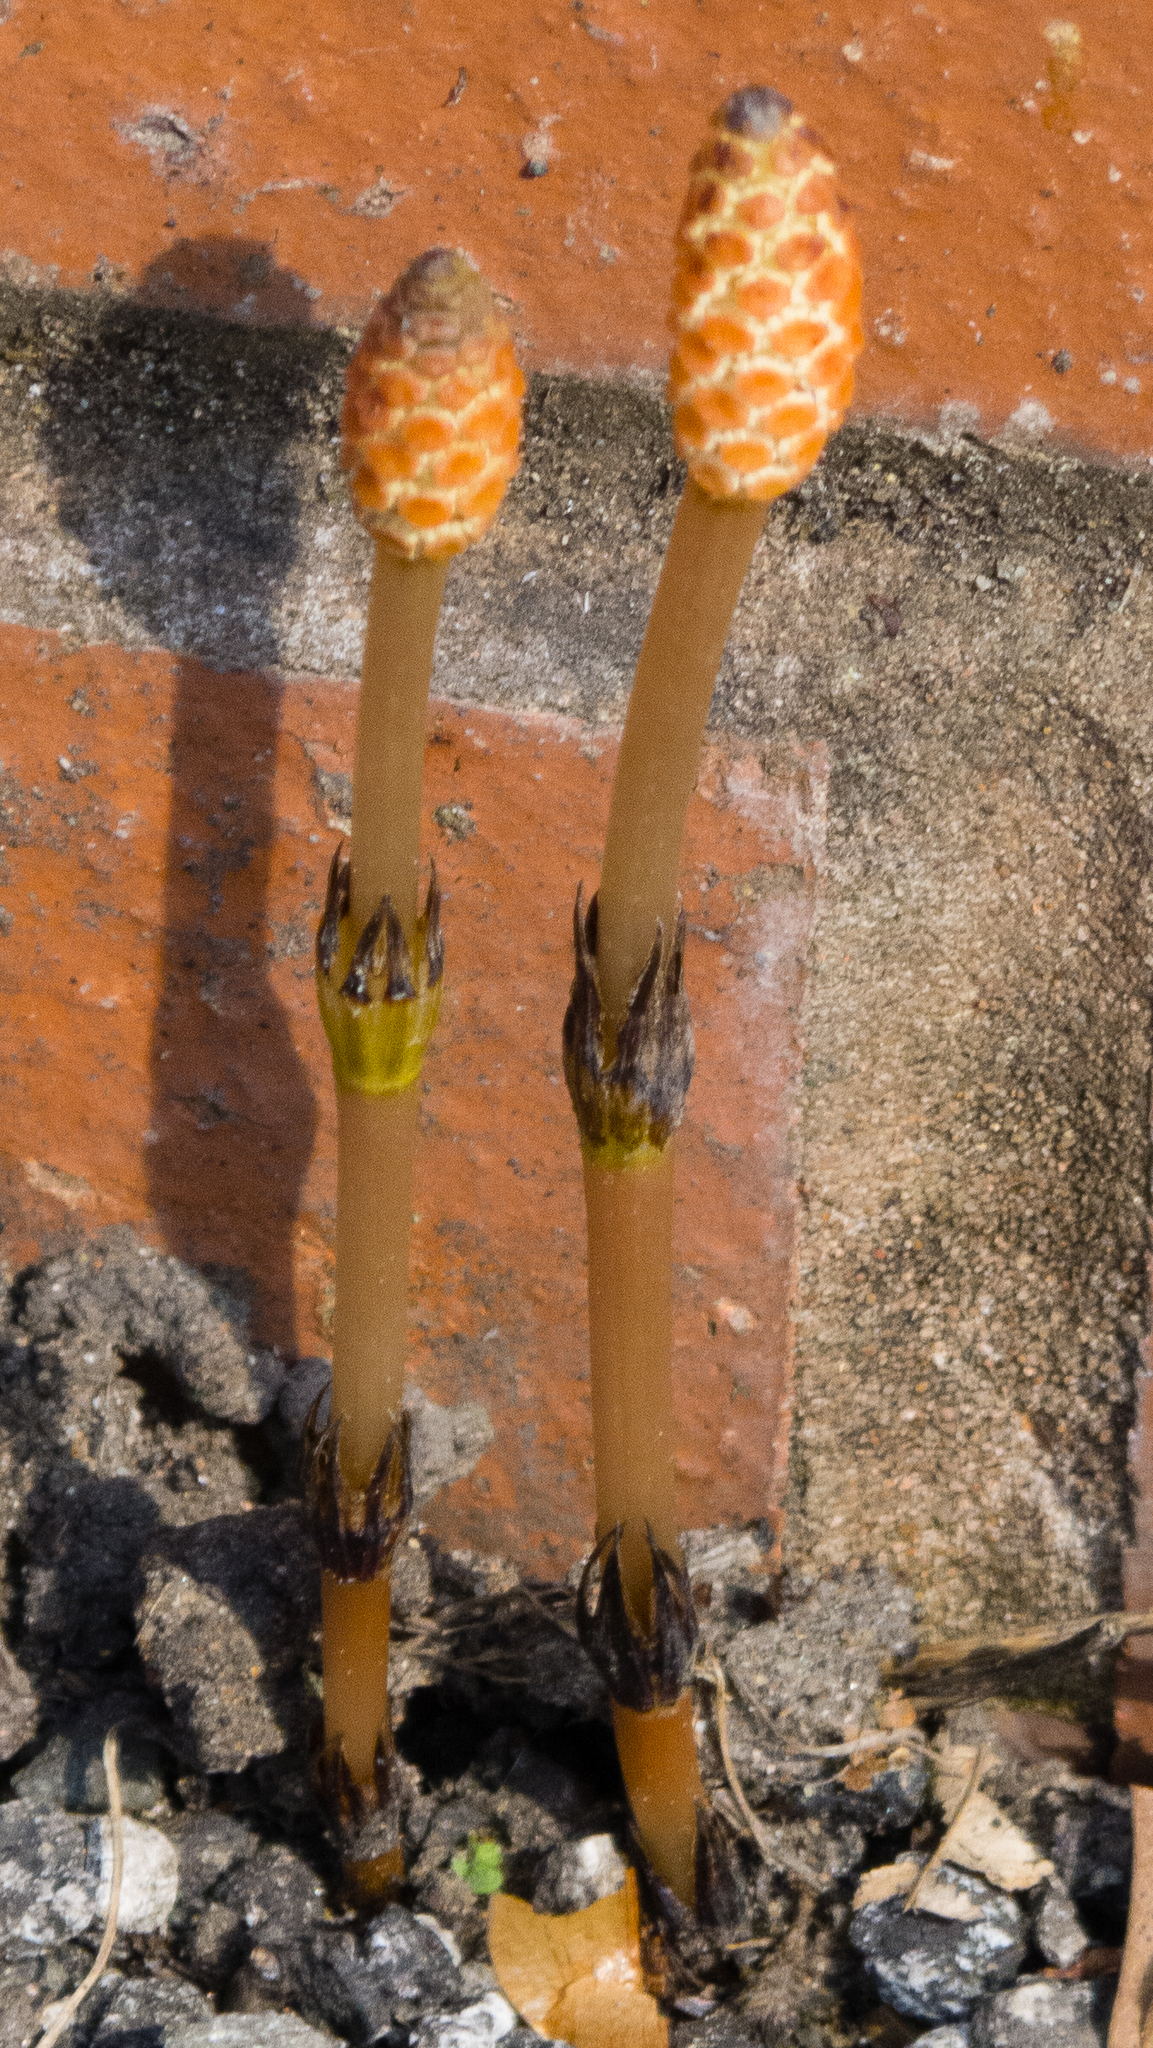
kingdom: Plantae
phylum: Tracheophyta
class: Polypodiopsida
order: Equisetales
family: Equisetaceae
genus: Equisetum
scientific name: Equisetum arvense
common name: Field horsetail
